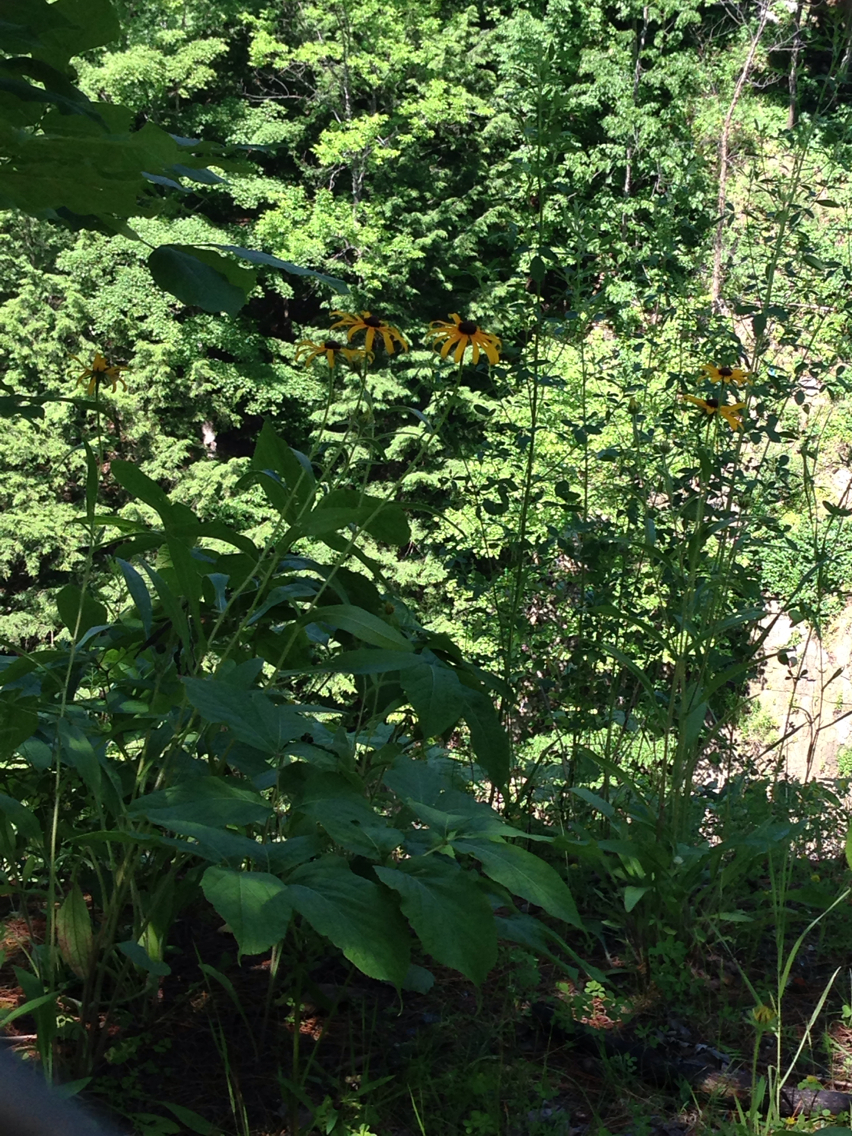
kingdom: Plantae
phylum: Tracheophyta
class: Magnoliopsida
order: Asterales
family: Asteraceae
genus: Rudbeckia
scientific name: Rudbeckia hirta
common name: Black-eyed-susan
